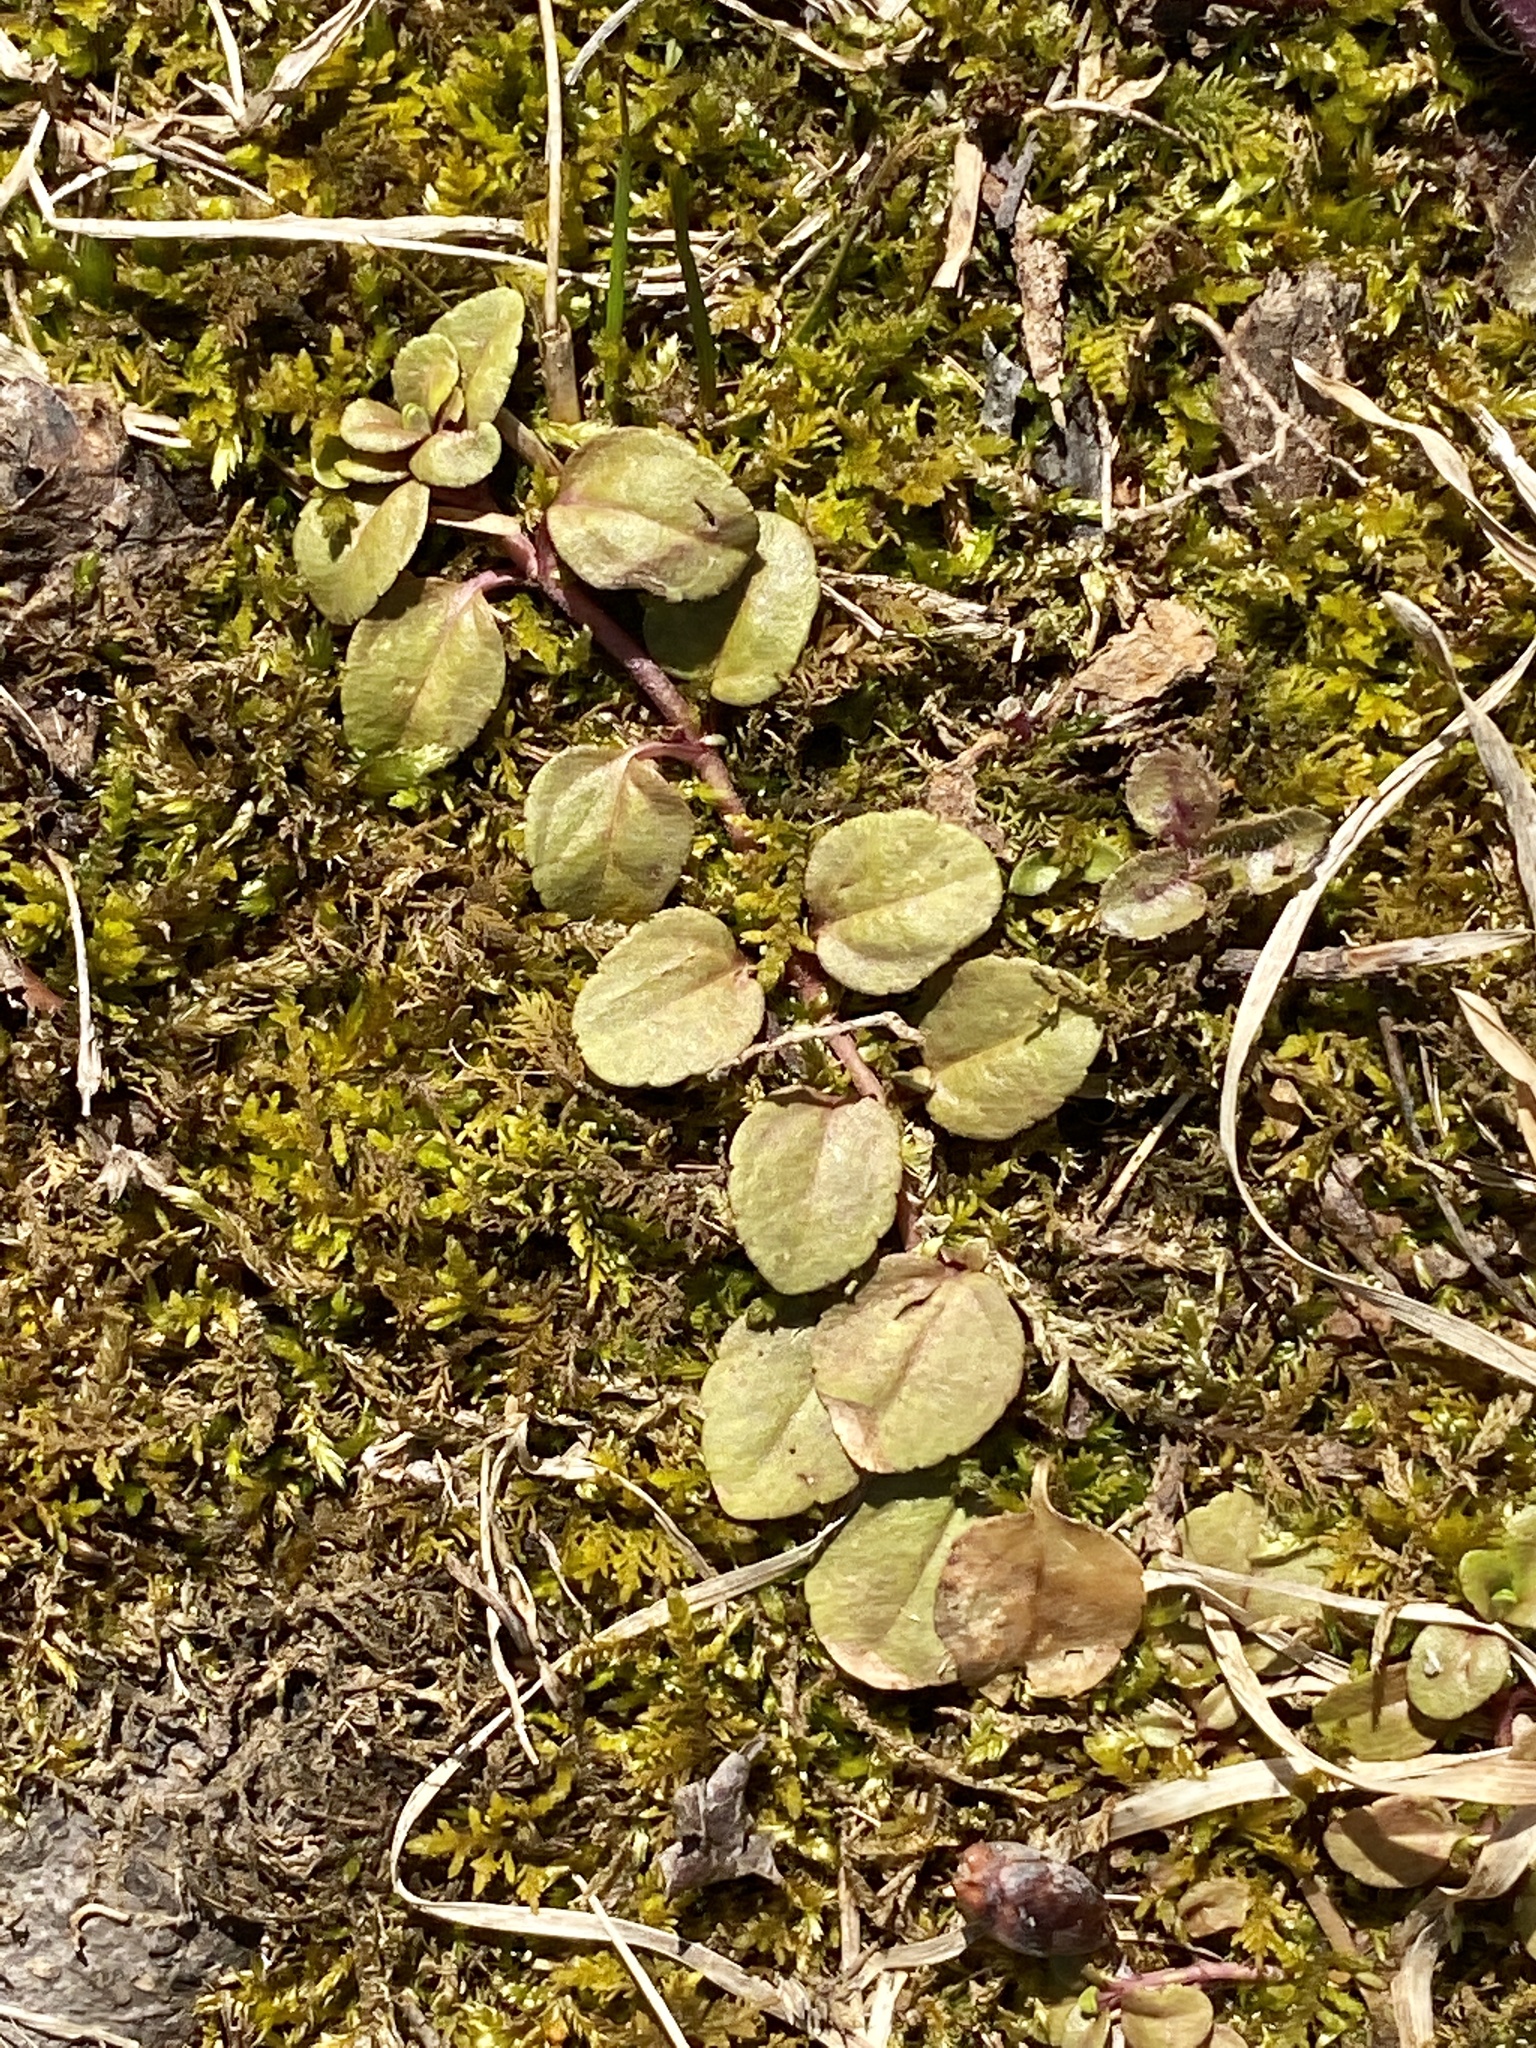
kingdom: Plantae
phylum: Tracheophyta
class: Magnoliopsida
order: Lamiales
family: Plantaginaceae
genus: Veronica
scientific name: Veronica serpyllifolia
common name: Thyme-leaved speedwell
